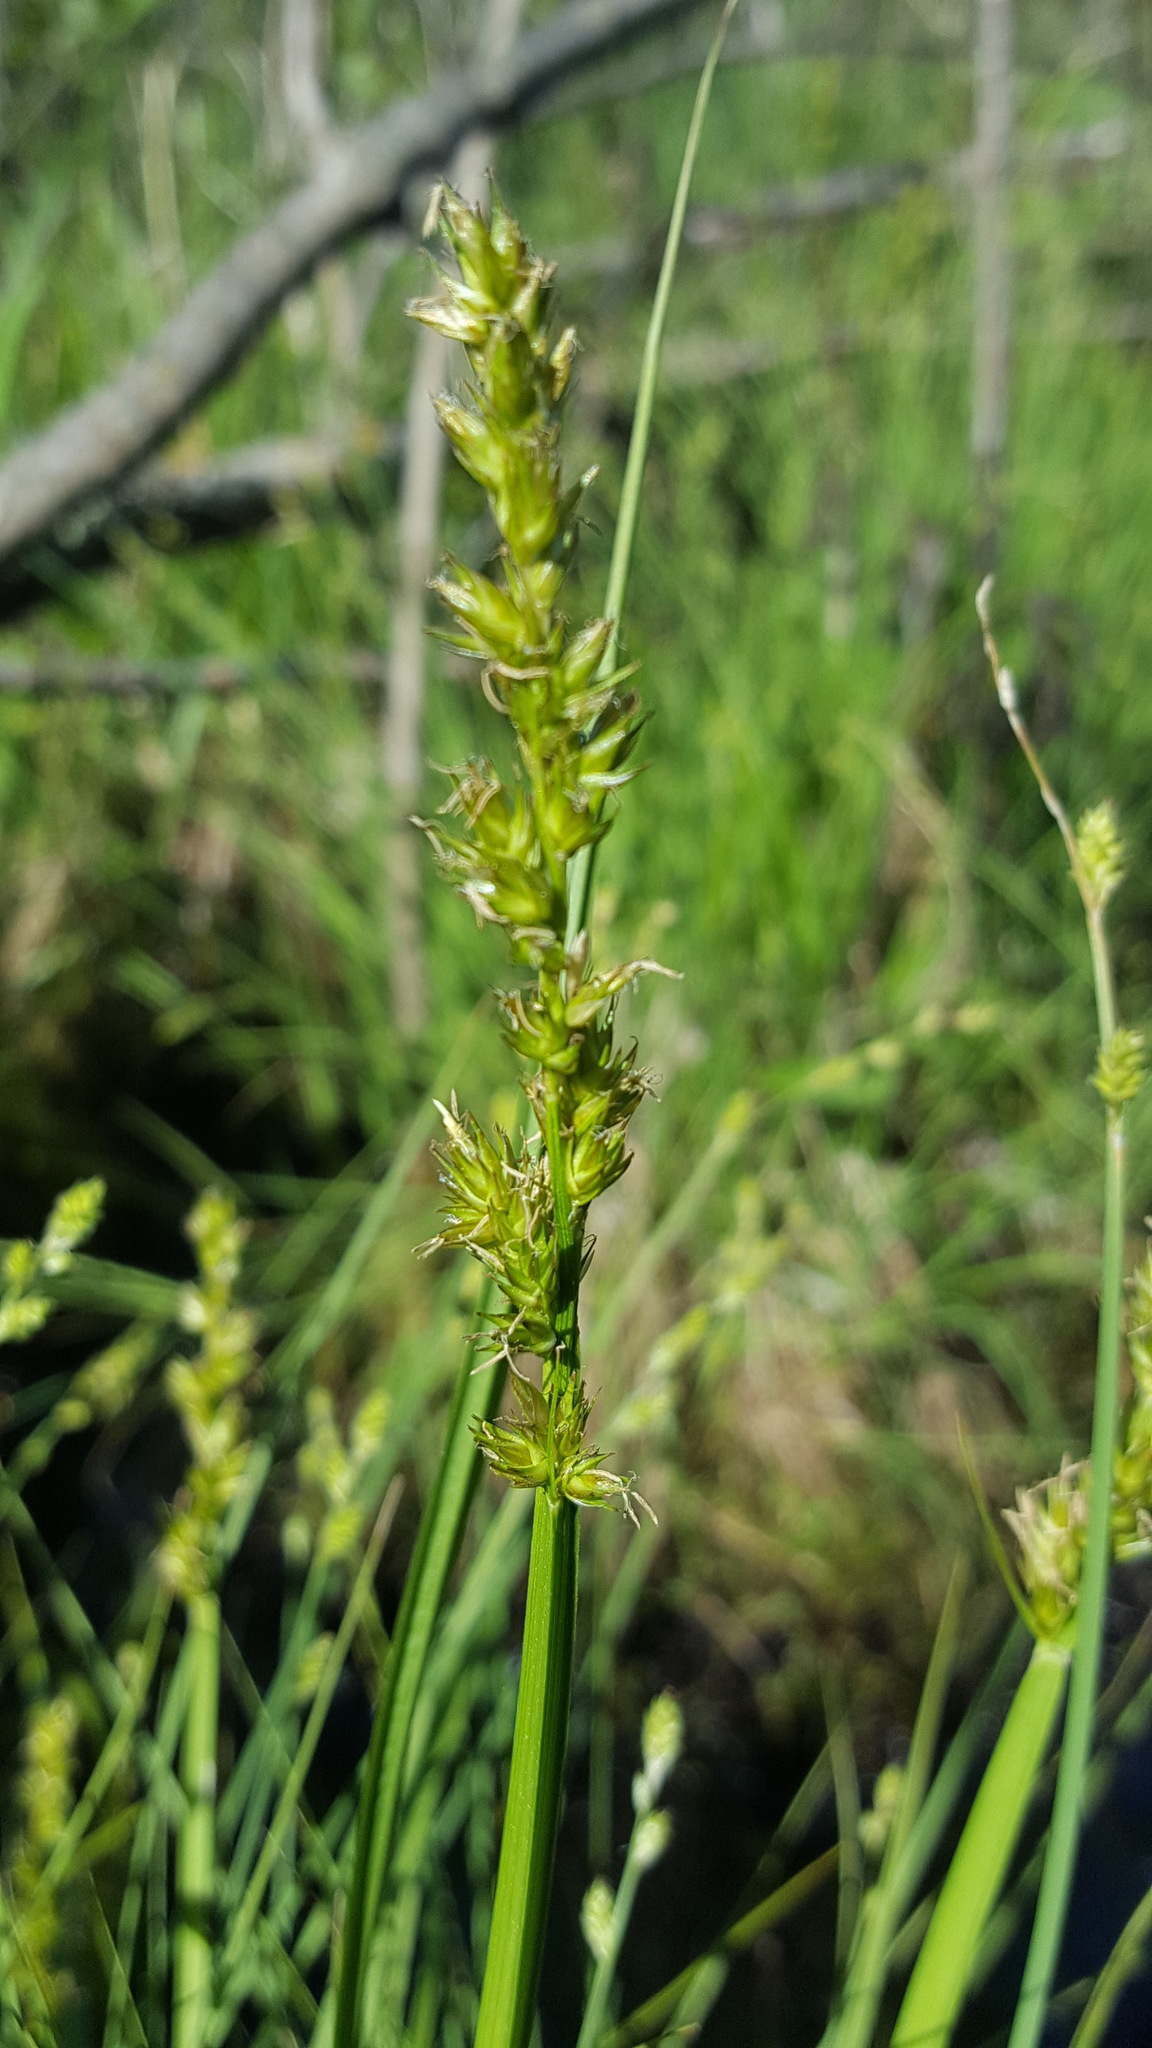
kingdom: Plantae
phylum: Tracheophyta
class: Liliopsida
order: Poales
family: Cyperaceae
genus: Carex
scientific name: Carex stipata
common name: Awl-fruited sedge
